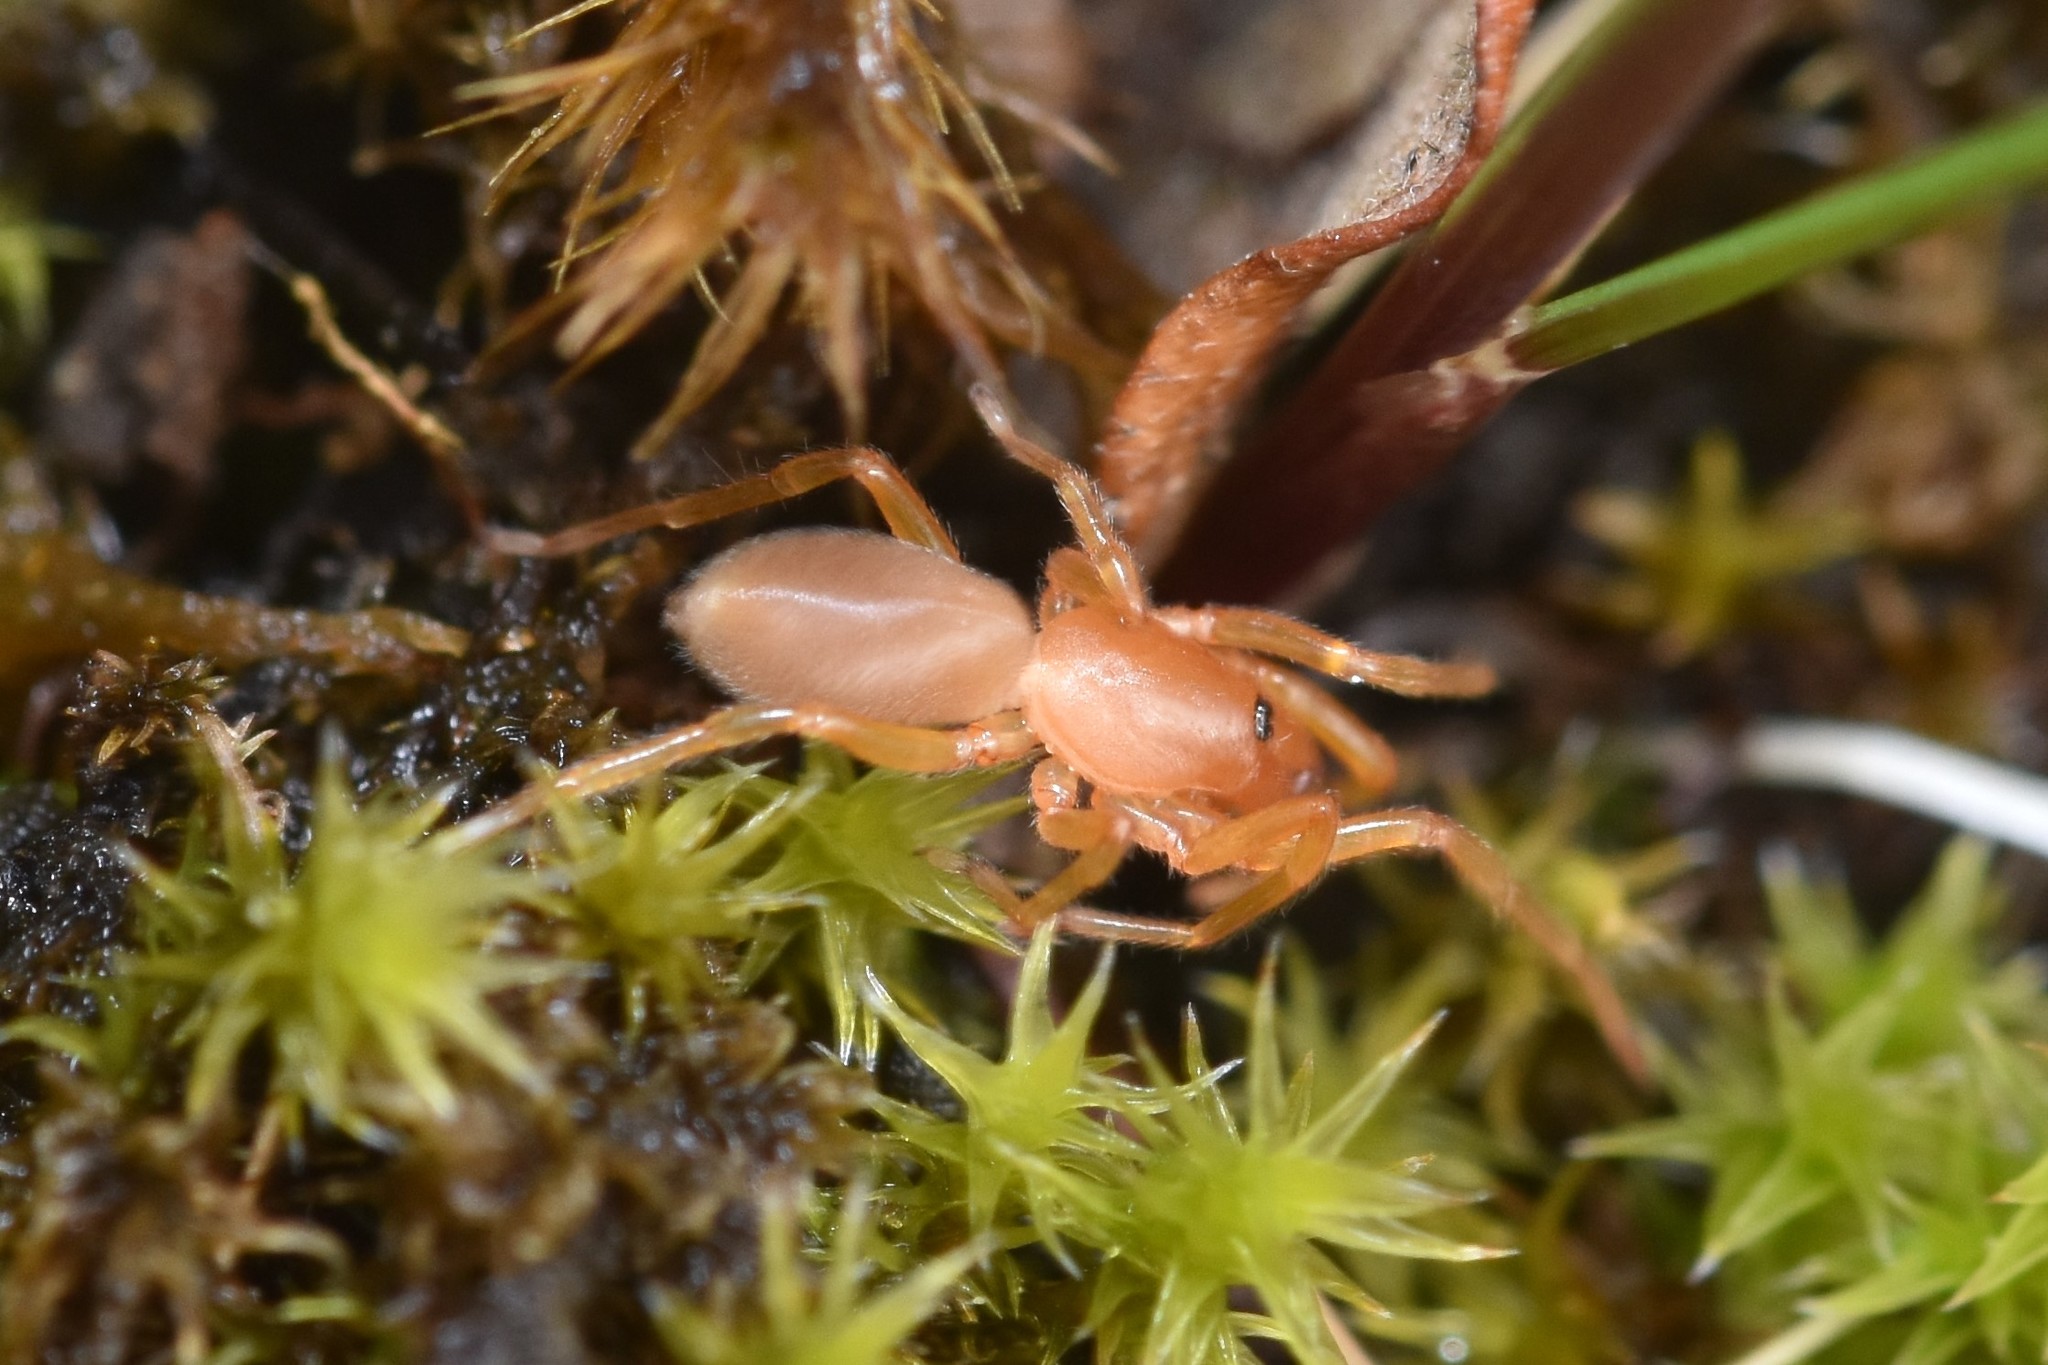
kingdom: Animalia
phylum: Arthropoda
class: Arachnida
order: Araneae
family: Dysderidae
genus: Dysdera
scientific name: Dysdera crocata
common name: Woodlouse spider
